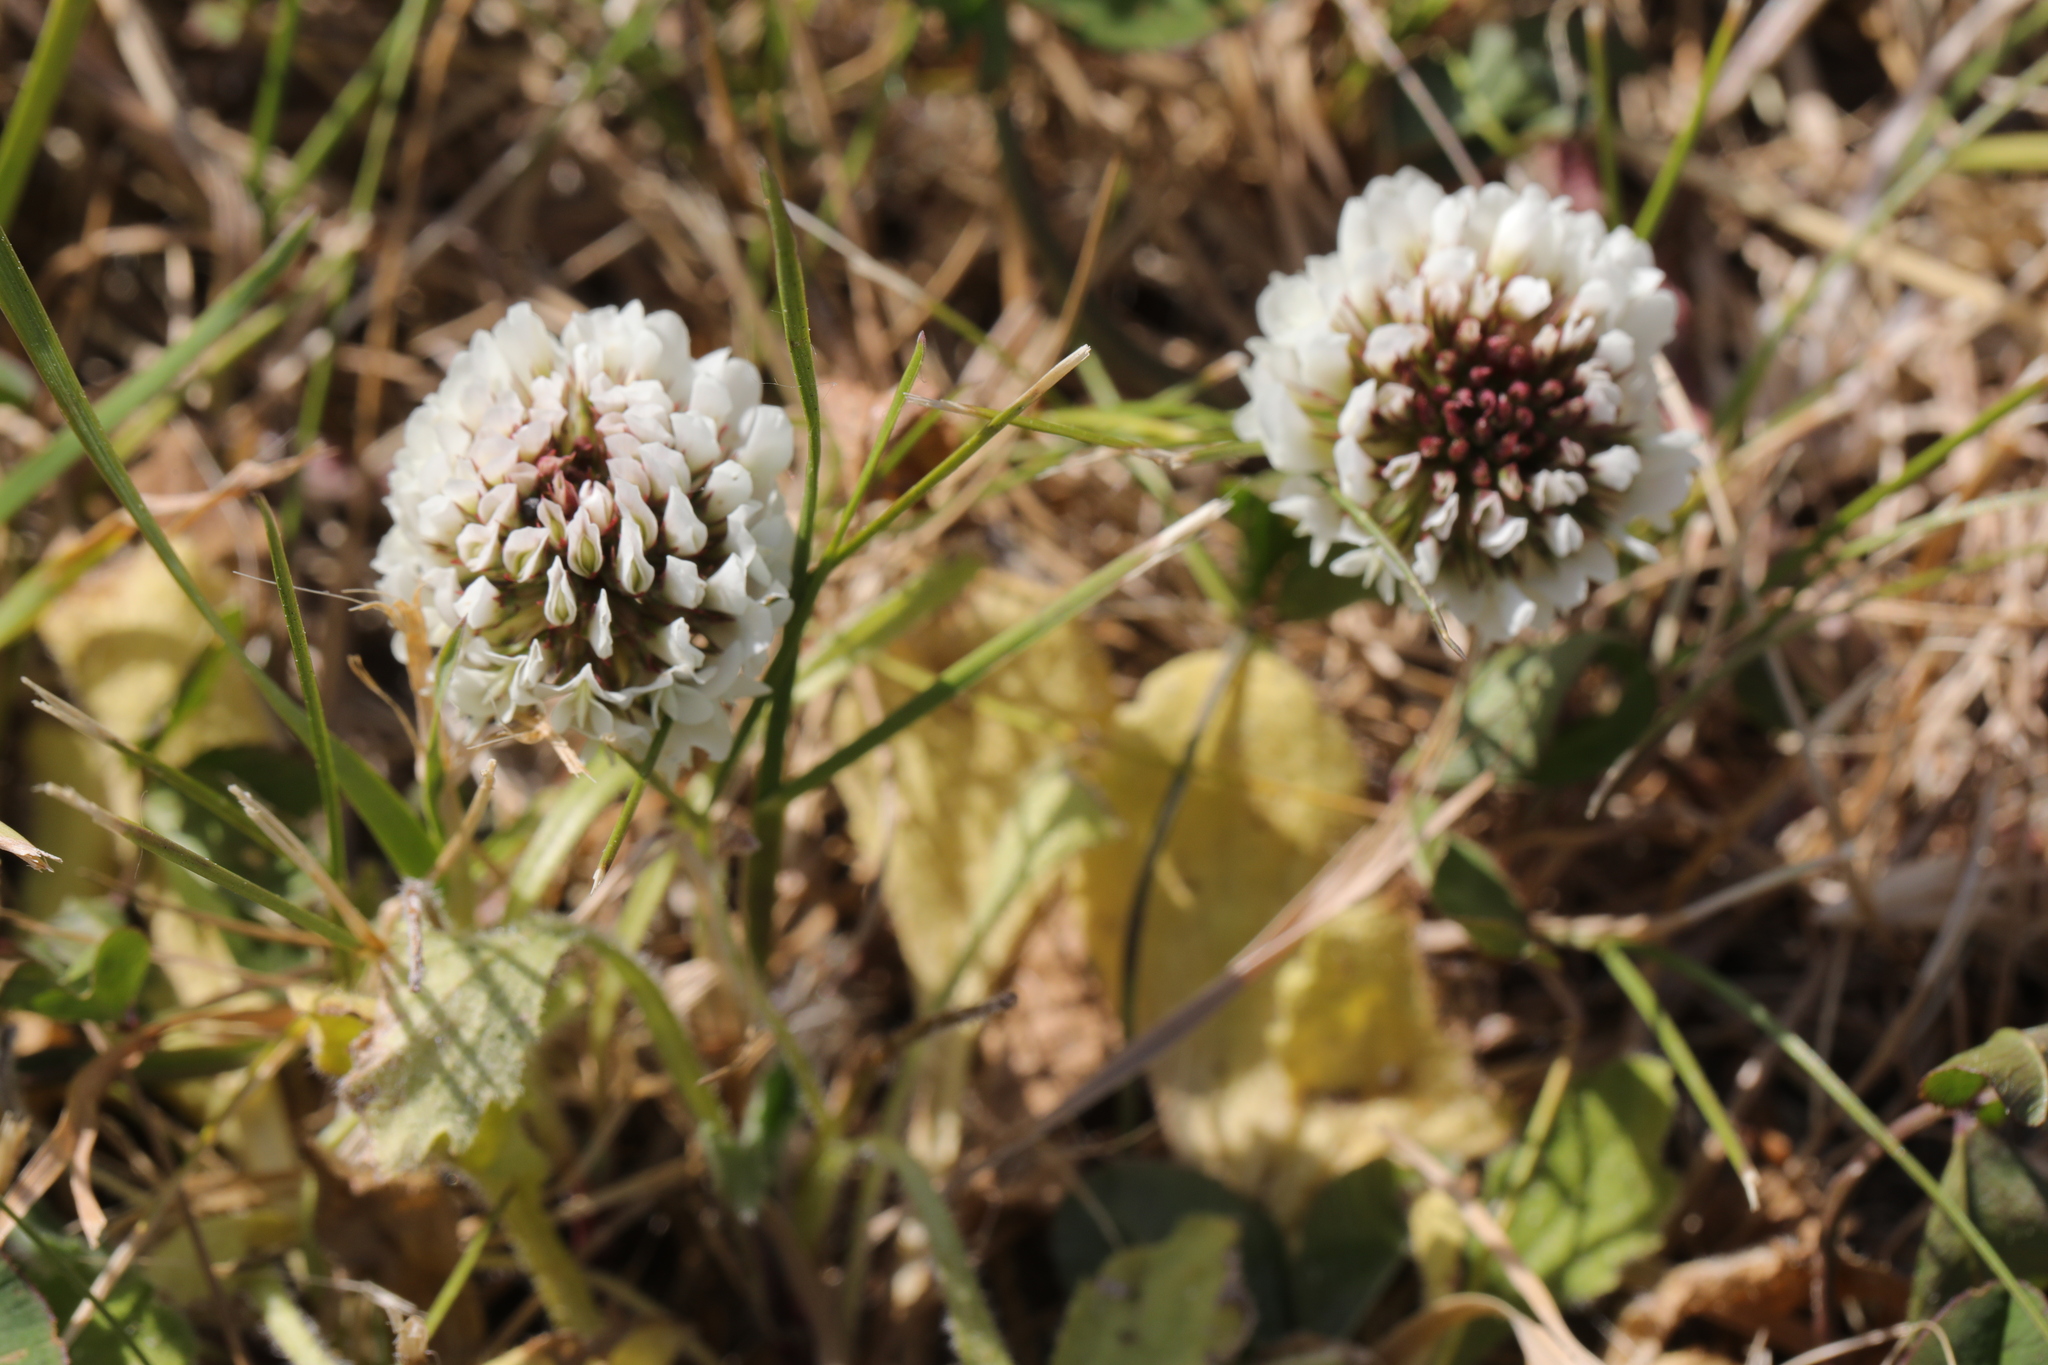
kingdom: Plantae
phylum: Tracheophyta
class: Magnoliopsida
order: Fabales
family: Fabaceae
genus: Trifolium
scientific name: Trifolium repens
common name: White clover
